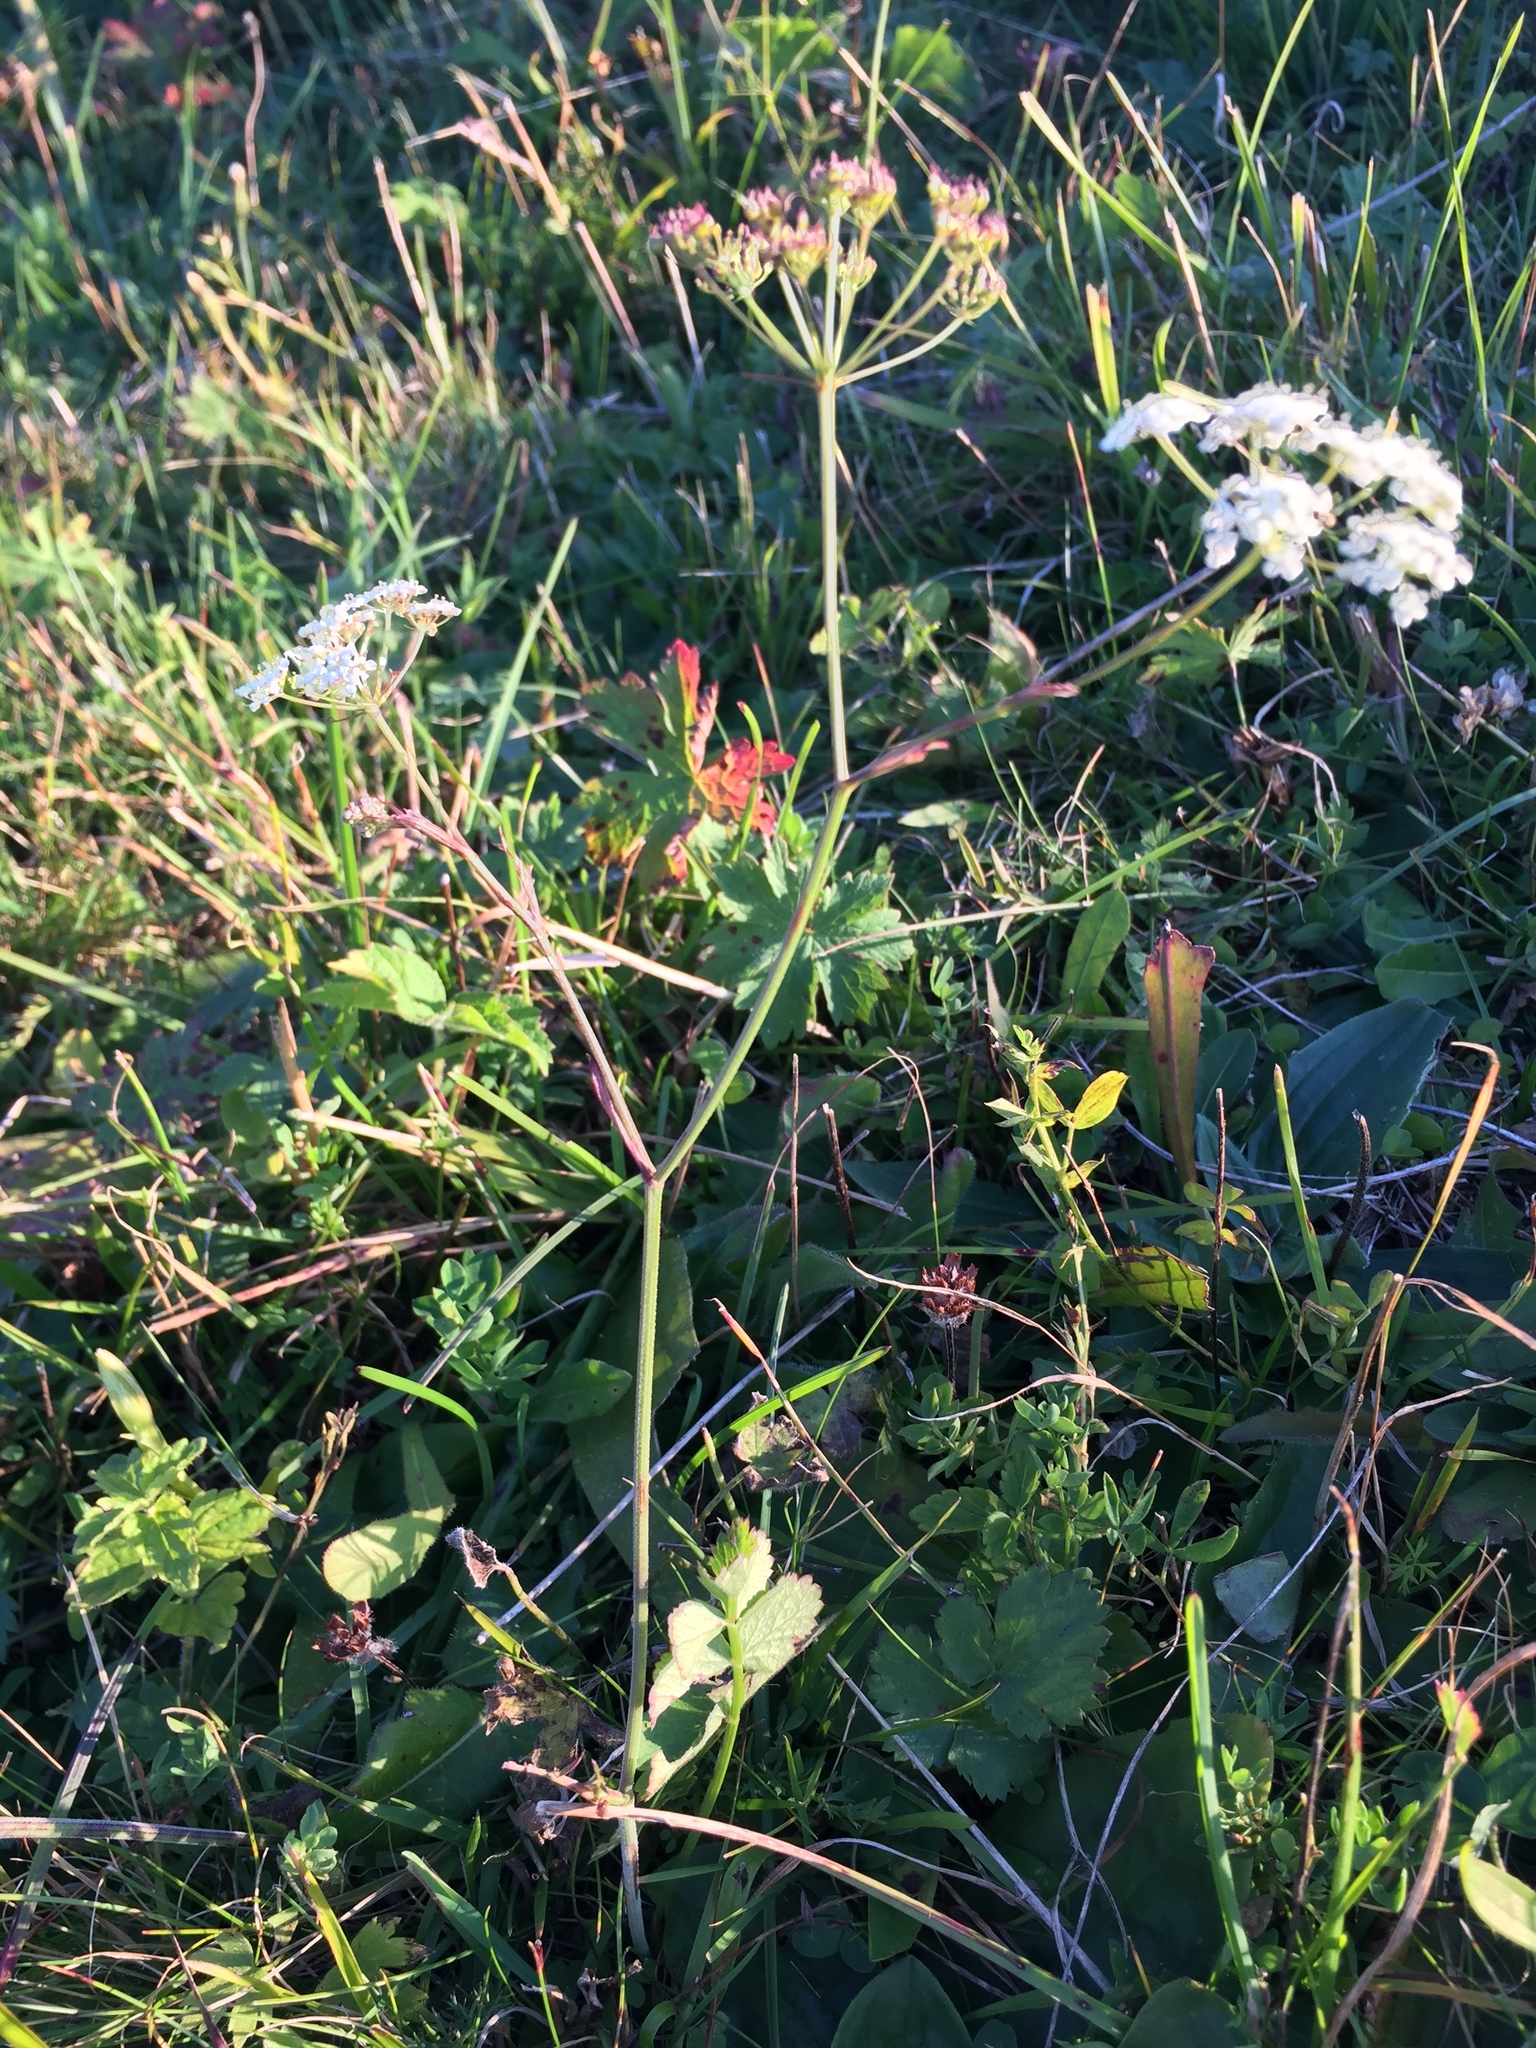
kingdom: Plantae
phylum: Tracheophyta
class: Magnoliopsida
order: Apiales
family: Apiaceae
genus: Pimpinella
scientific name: Pimpinella saxifraga
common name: Burnet-saxifrage
